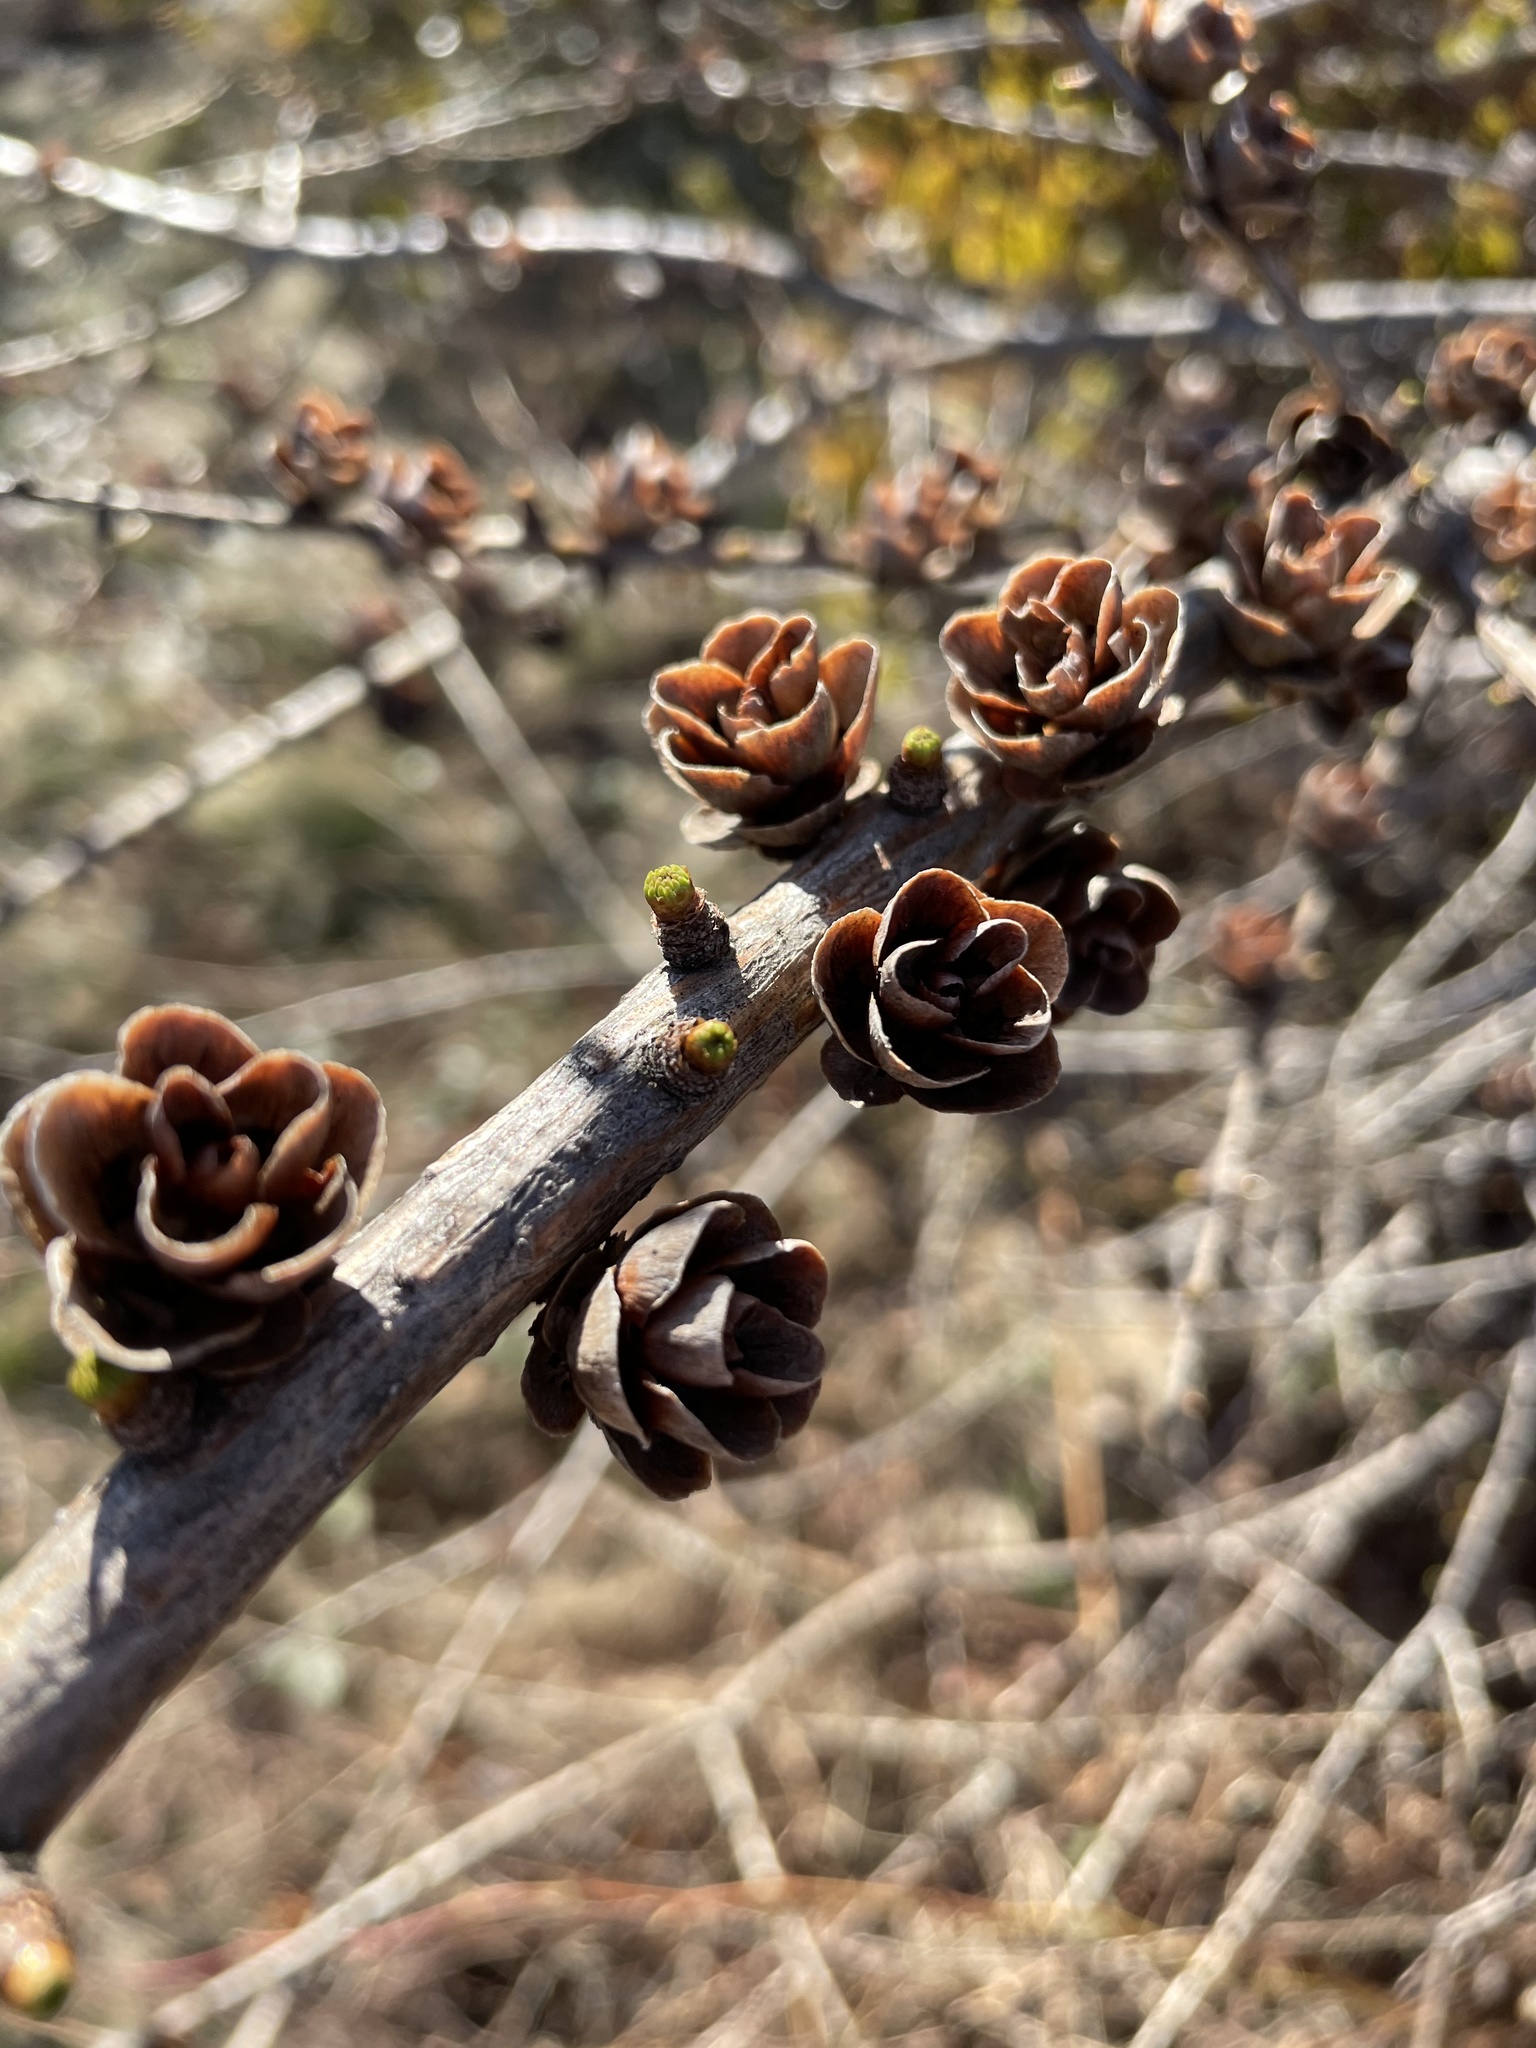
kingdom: Plantae
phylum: Tracheophyta
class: Pinopsida
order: Pinales
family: Pinaceae
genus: Larix
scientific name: Larix laricina
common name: American larch
